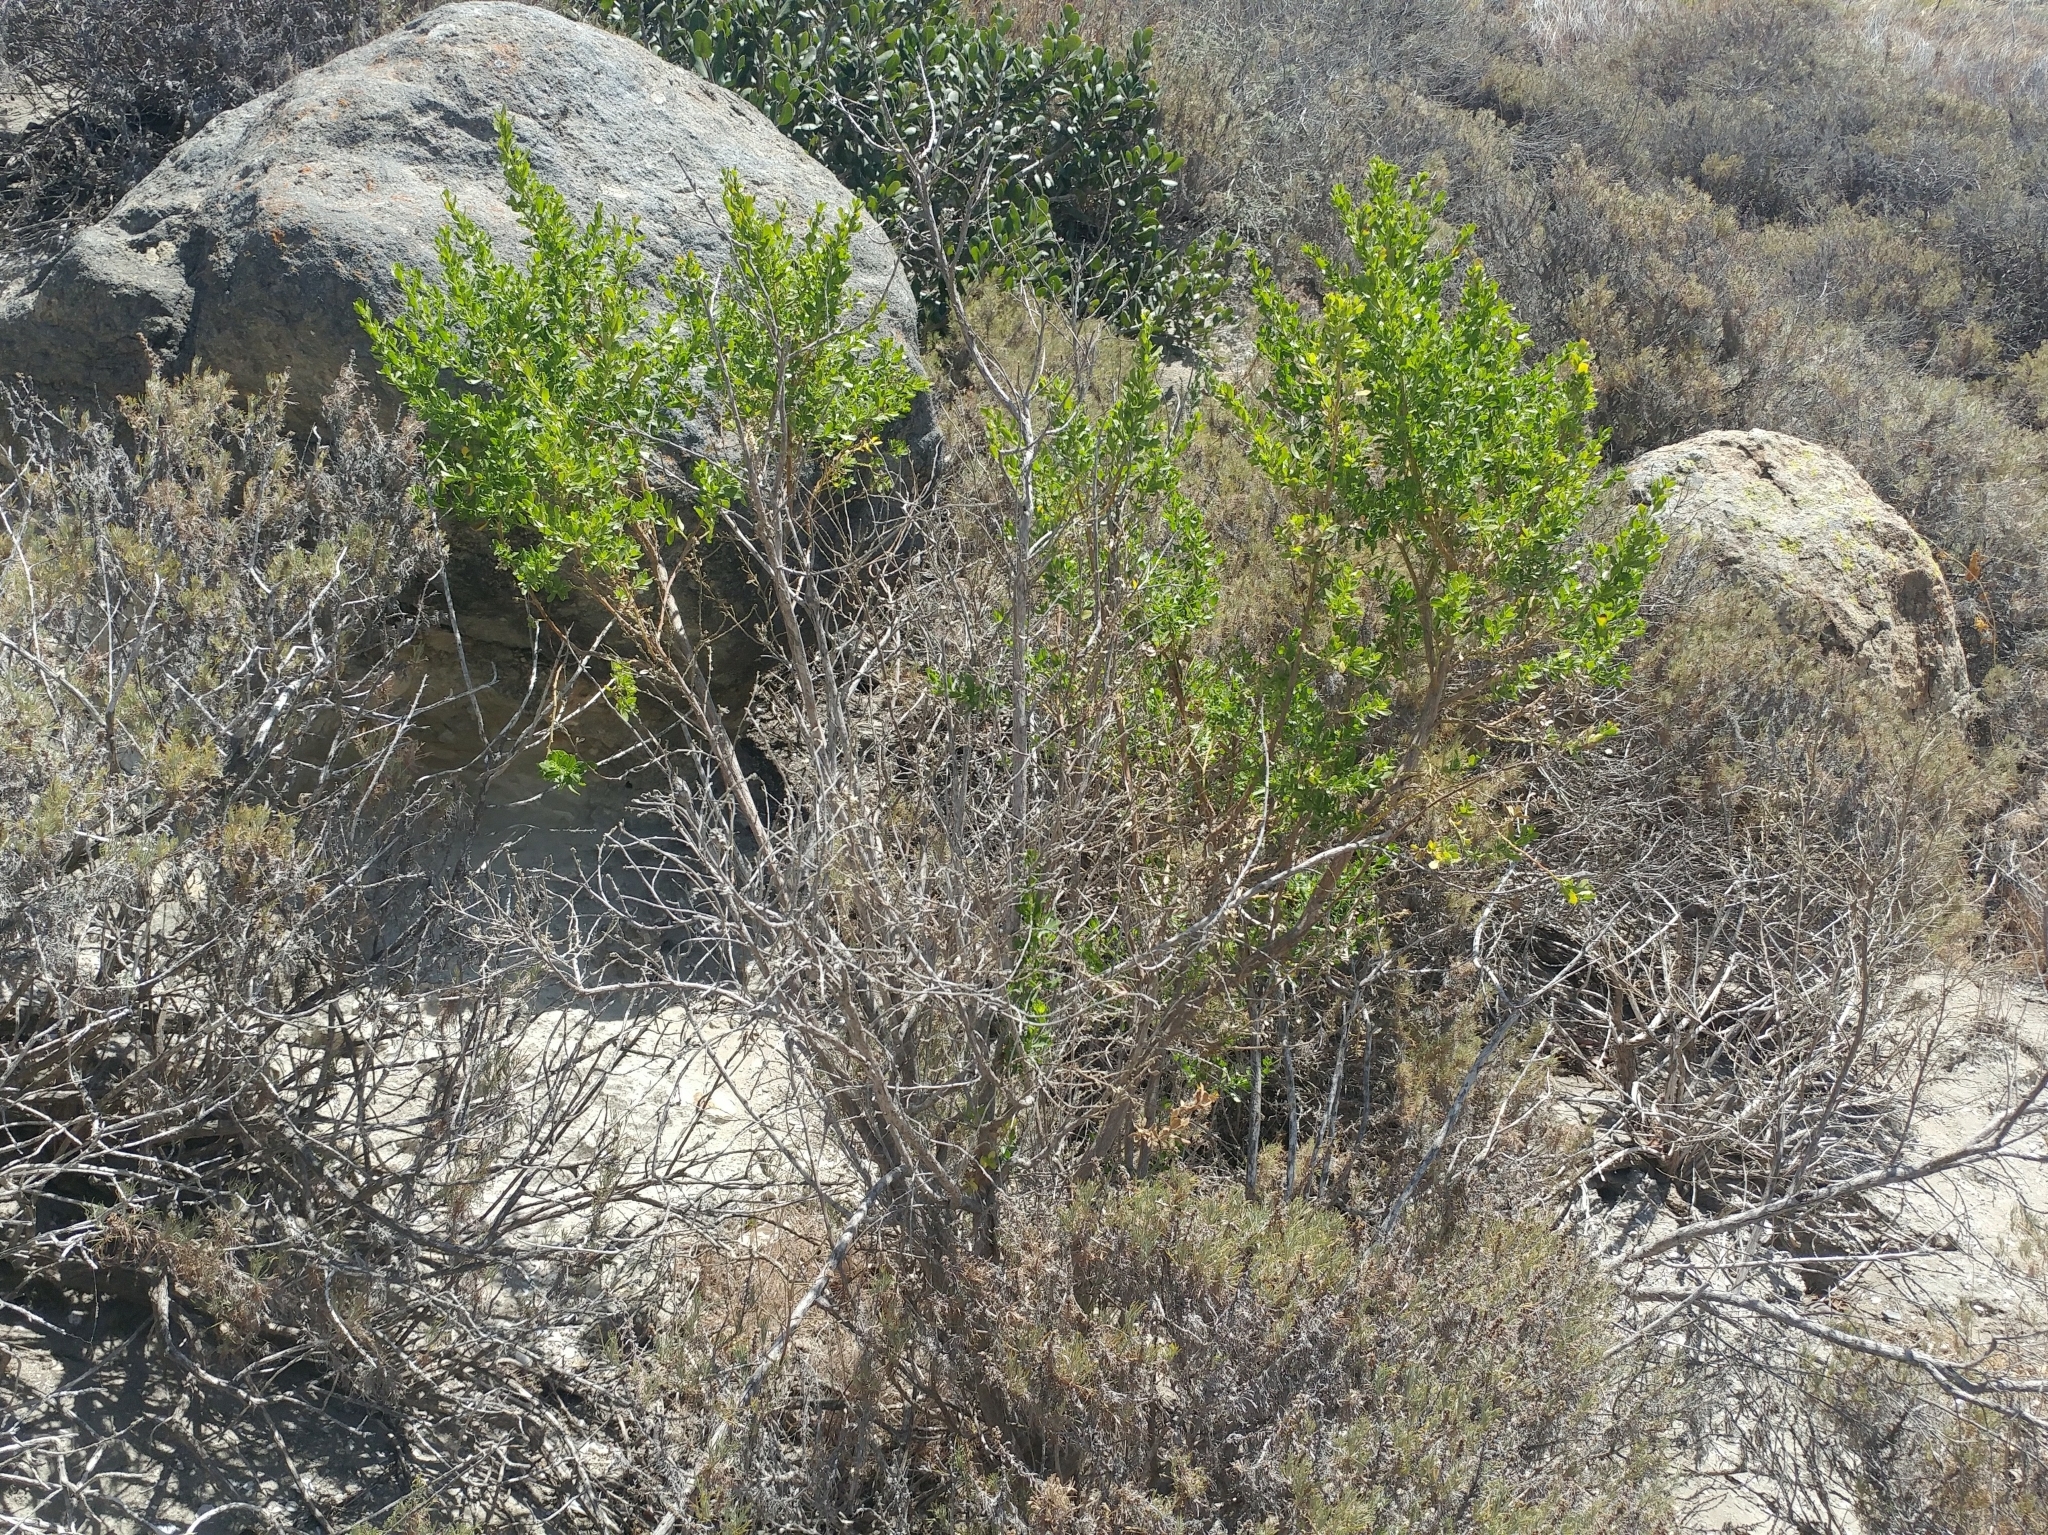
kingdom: Plantae
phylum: Tracheophyta
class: Magnoliopsida
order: Asterales
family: Asteraceae
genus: Baccharis
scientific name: Baccharis pilularis
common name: Coyotebrush
